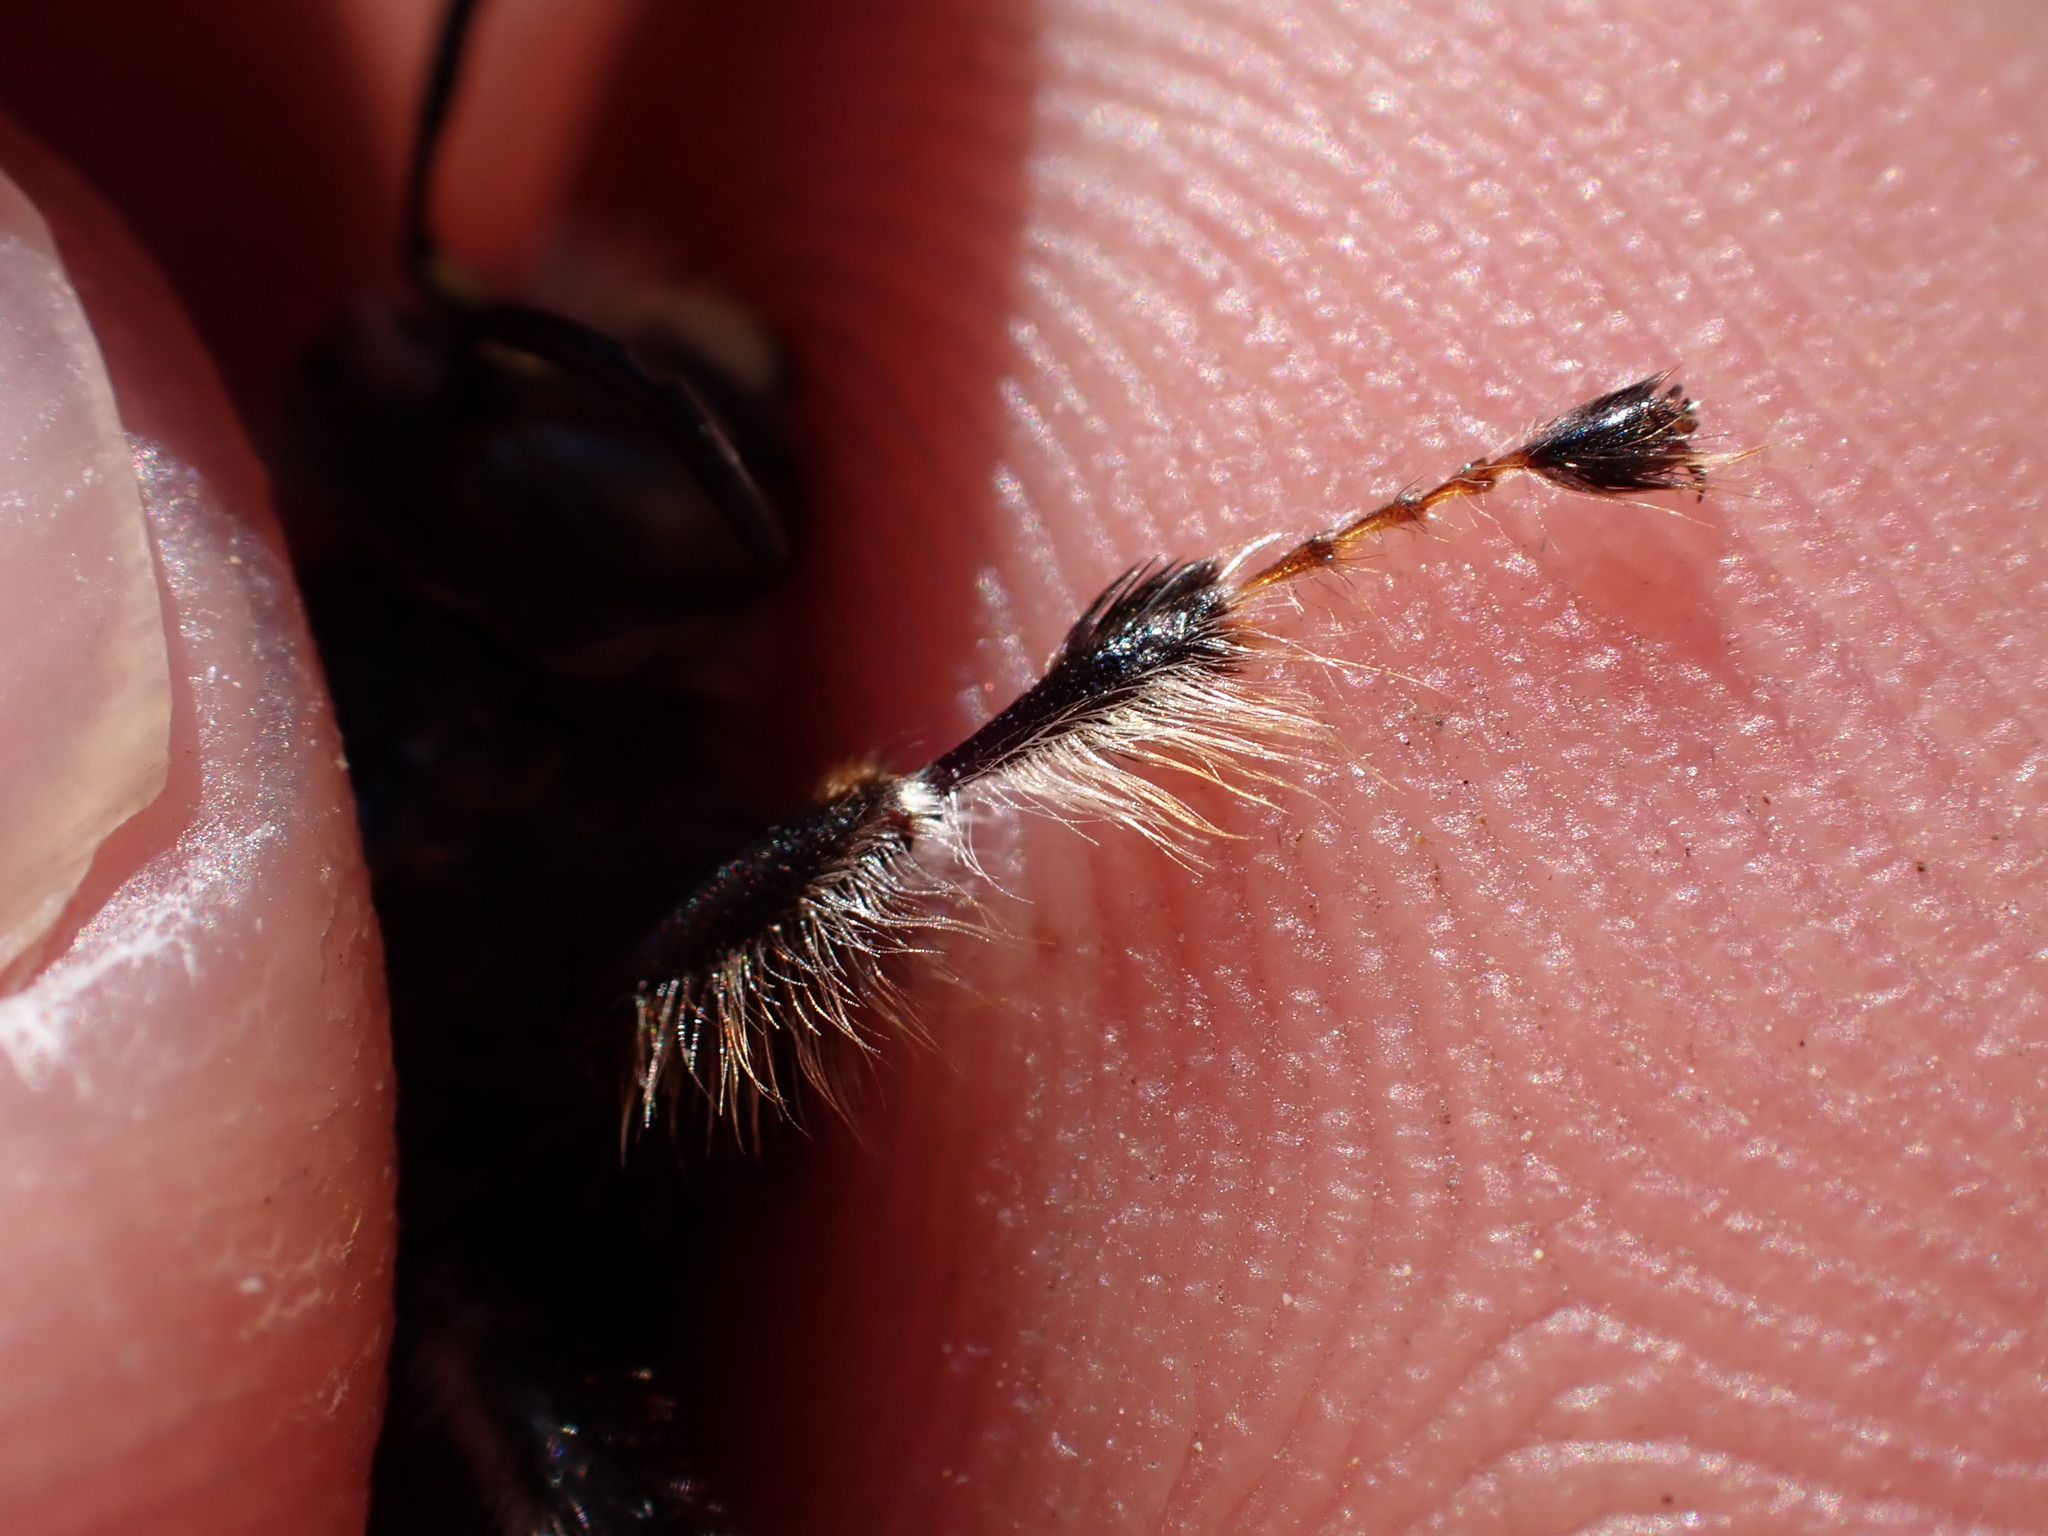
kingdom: Animalia
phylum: Arthropoda
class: Insecta
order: Hymenoptera
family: Apidae
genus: Anthophora
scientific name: Anthophora dispar
